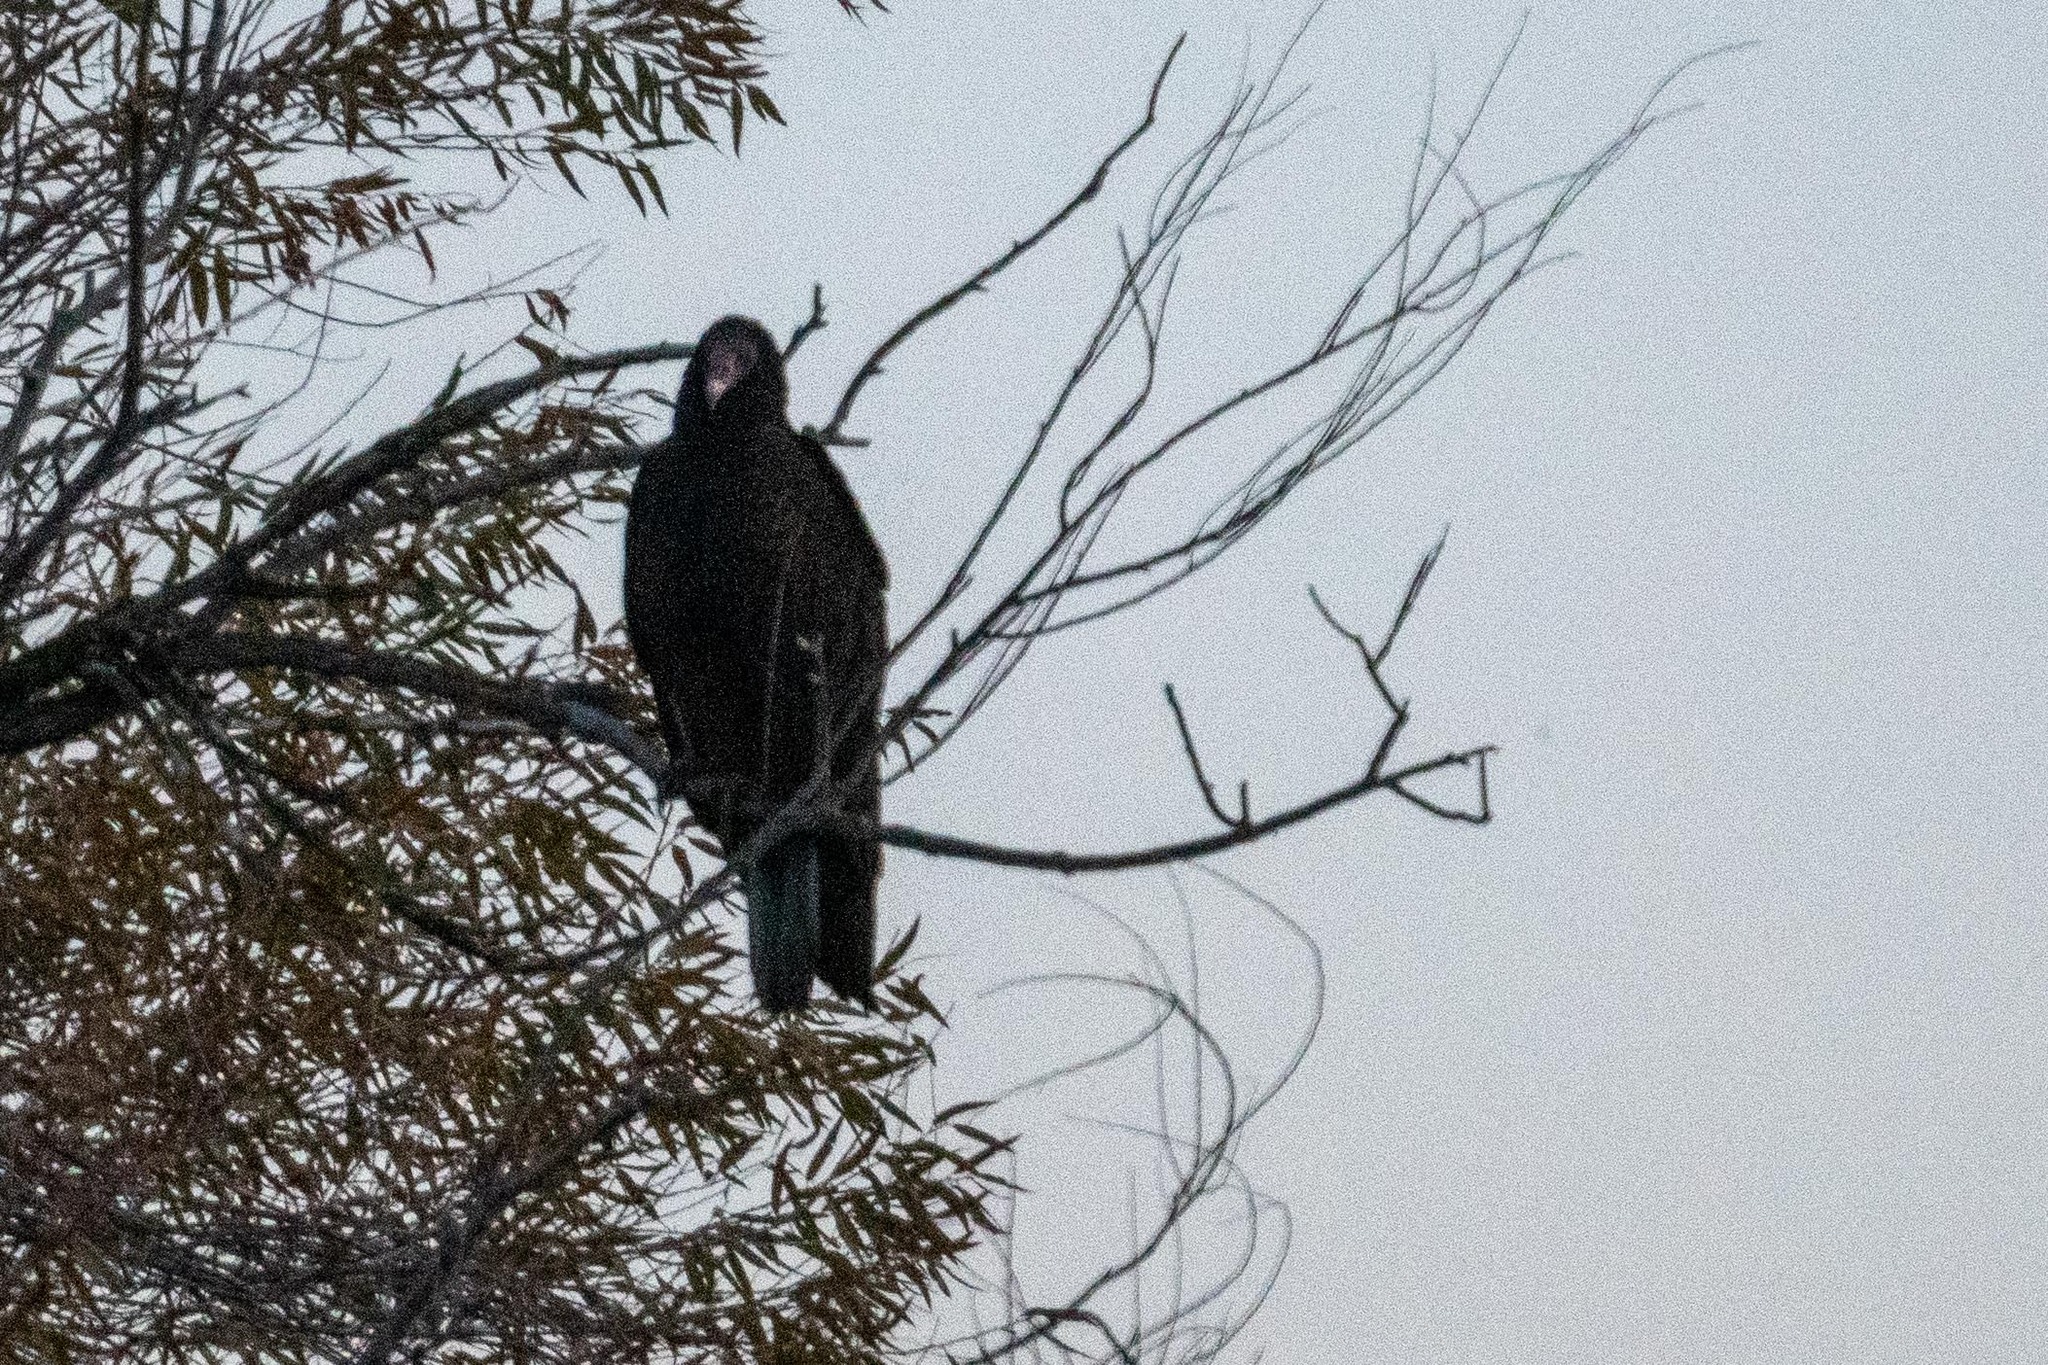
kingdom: Animalia
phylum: Chordata
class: Aves
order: Accipitriformes
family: Cathartidae
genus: Cathartes
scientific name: Cathartes aura
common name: Turkey vulture
